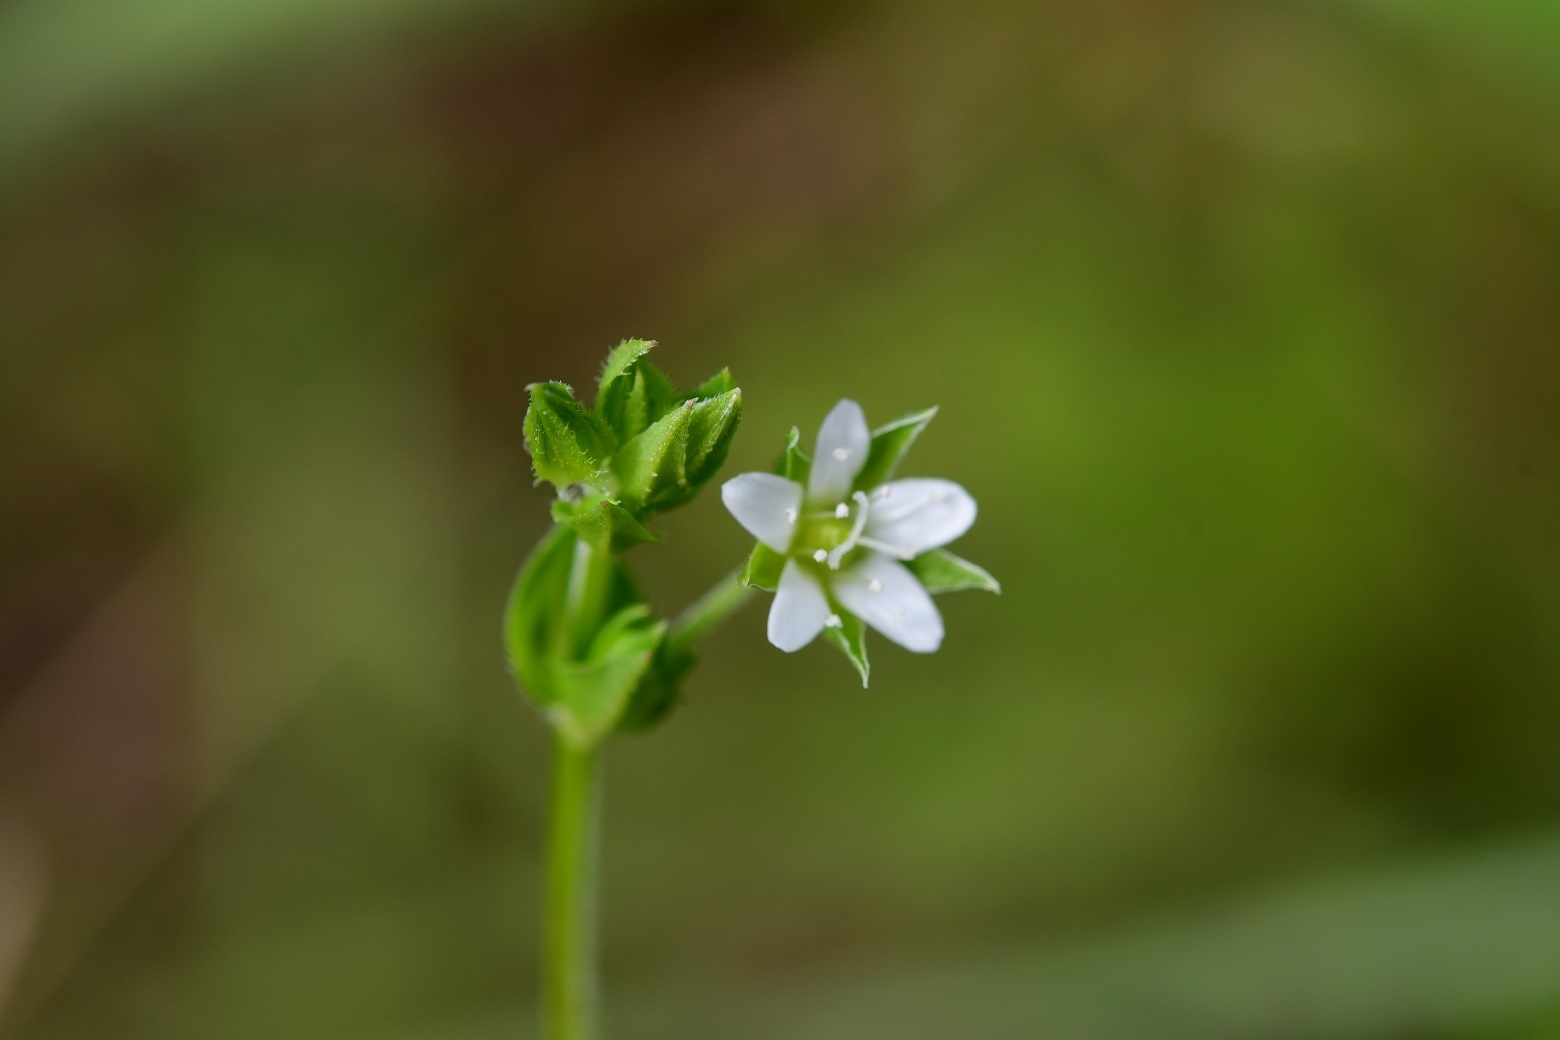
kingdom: Plantae
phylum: Tracheophyta
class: Magnoliopsida
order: Caryophyllales
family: Caryophyllaceae
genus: Arenaria
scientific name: Arenaria lanuginosa
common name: Spread sandwort
